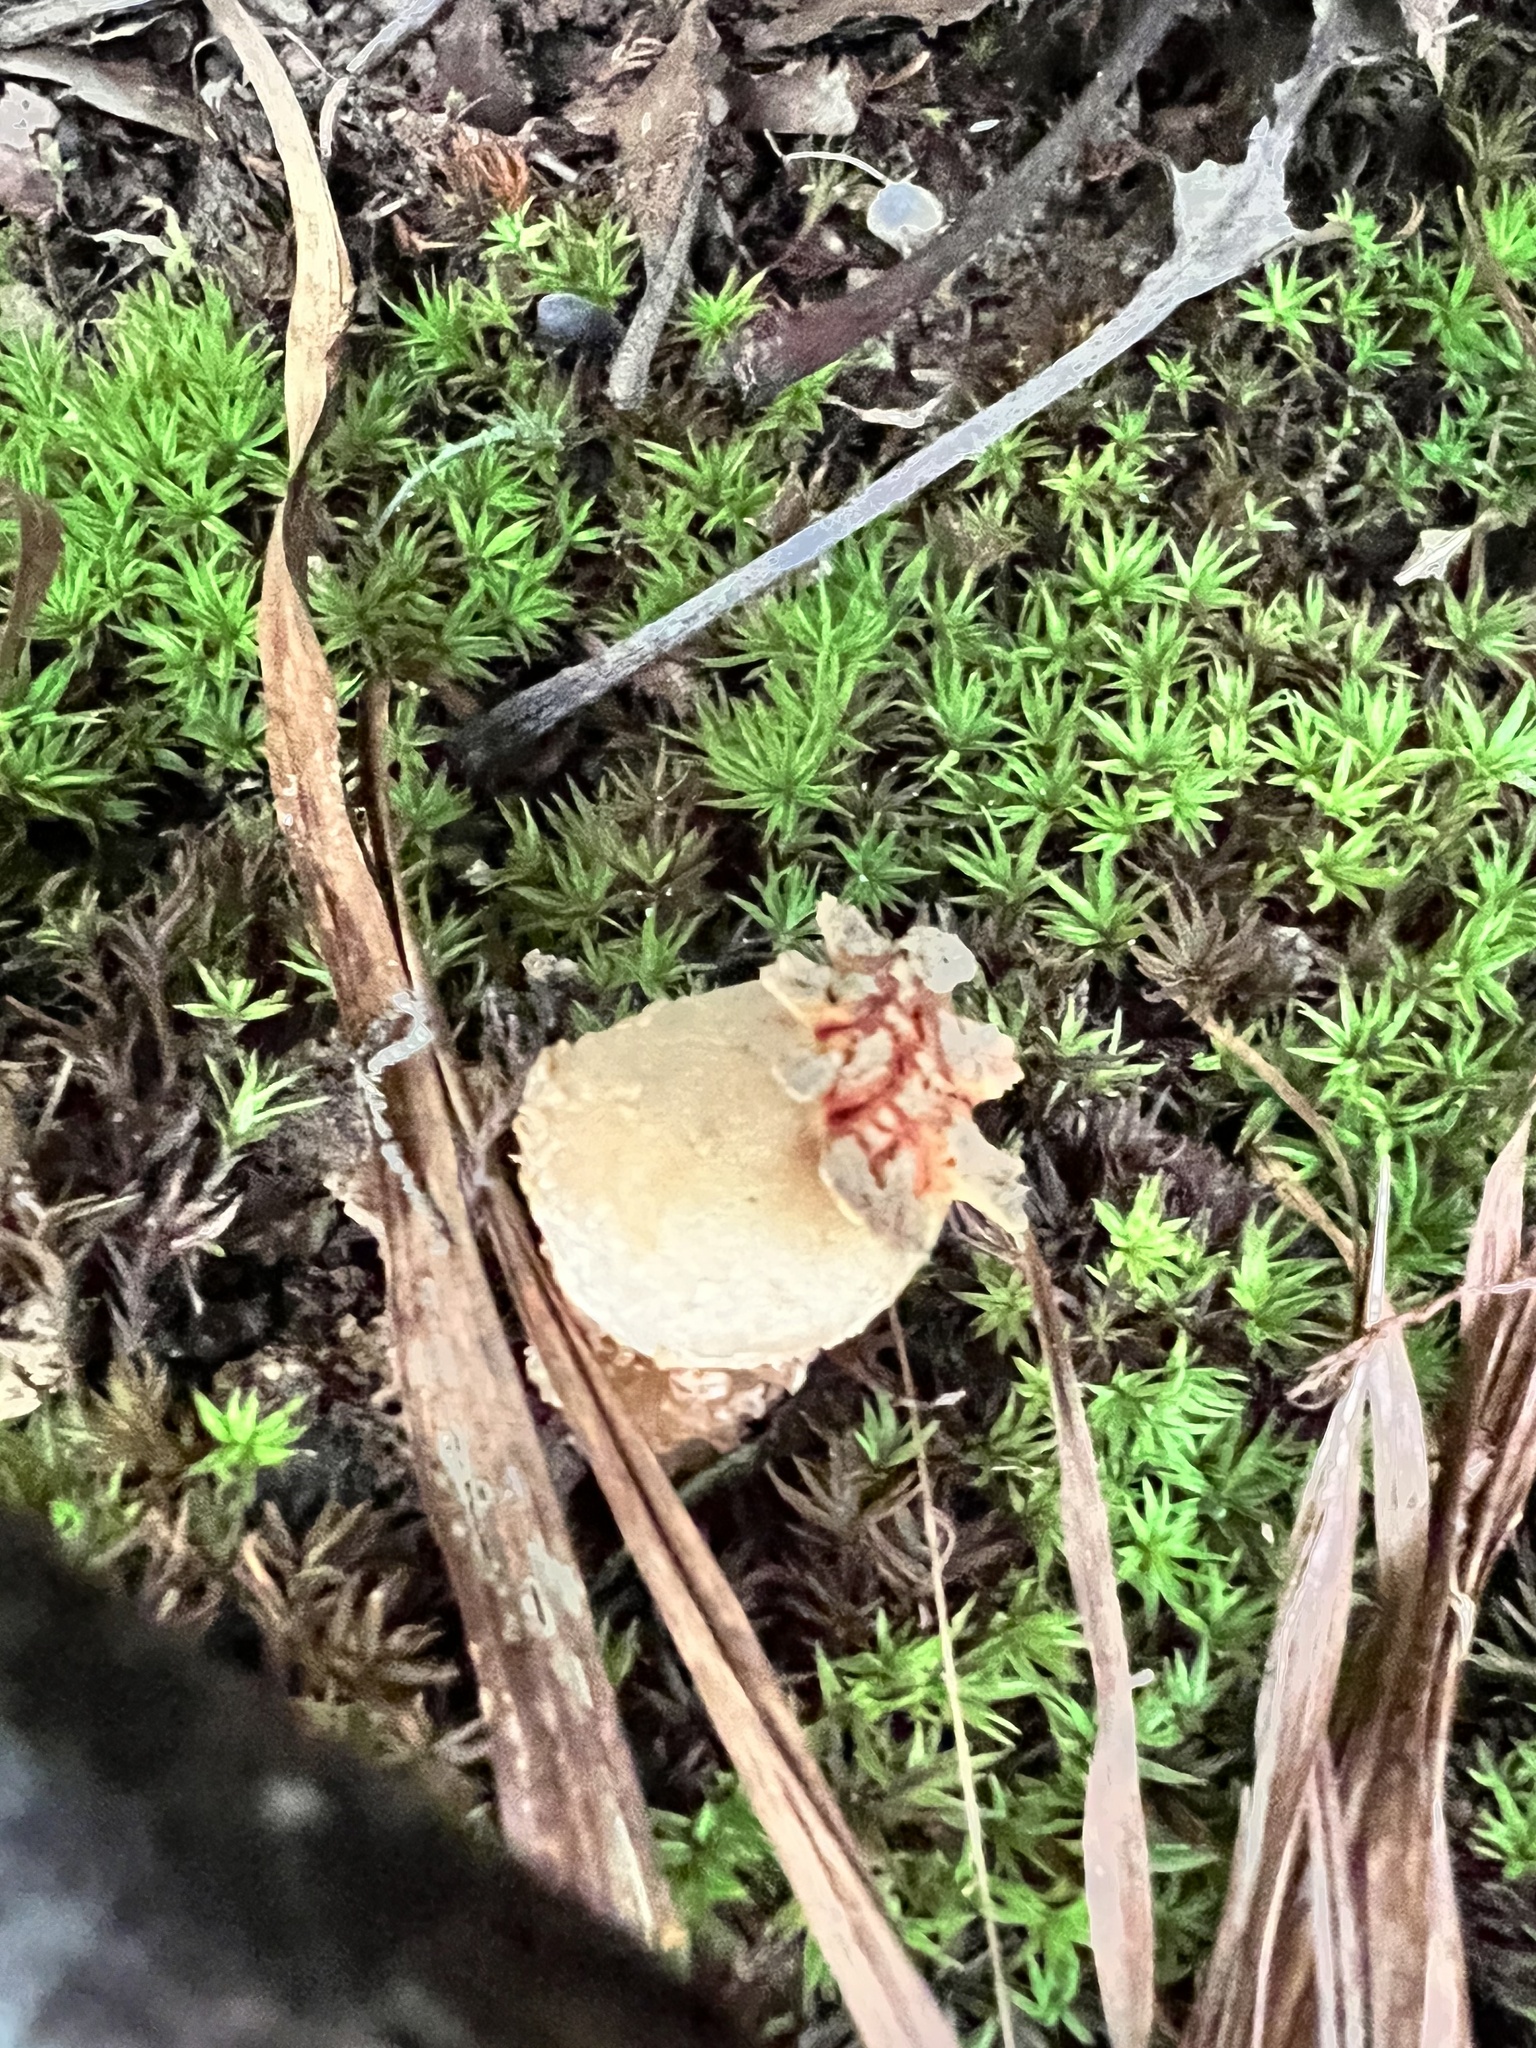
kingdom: Fungi
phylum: Basidiomycota
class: Agaricomycetes
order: Boletales
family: Calostomataceae
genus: Calostoma
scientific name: Calostoma ravenelii
